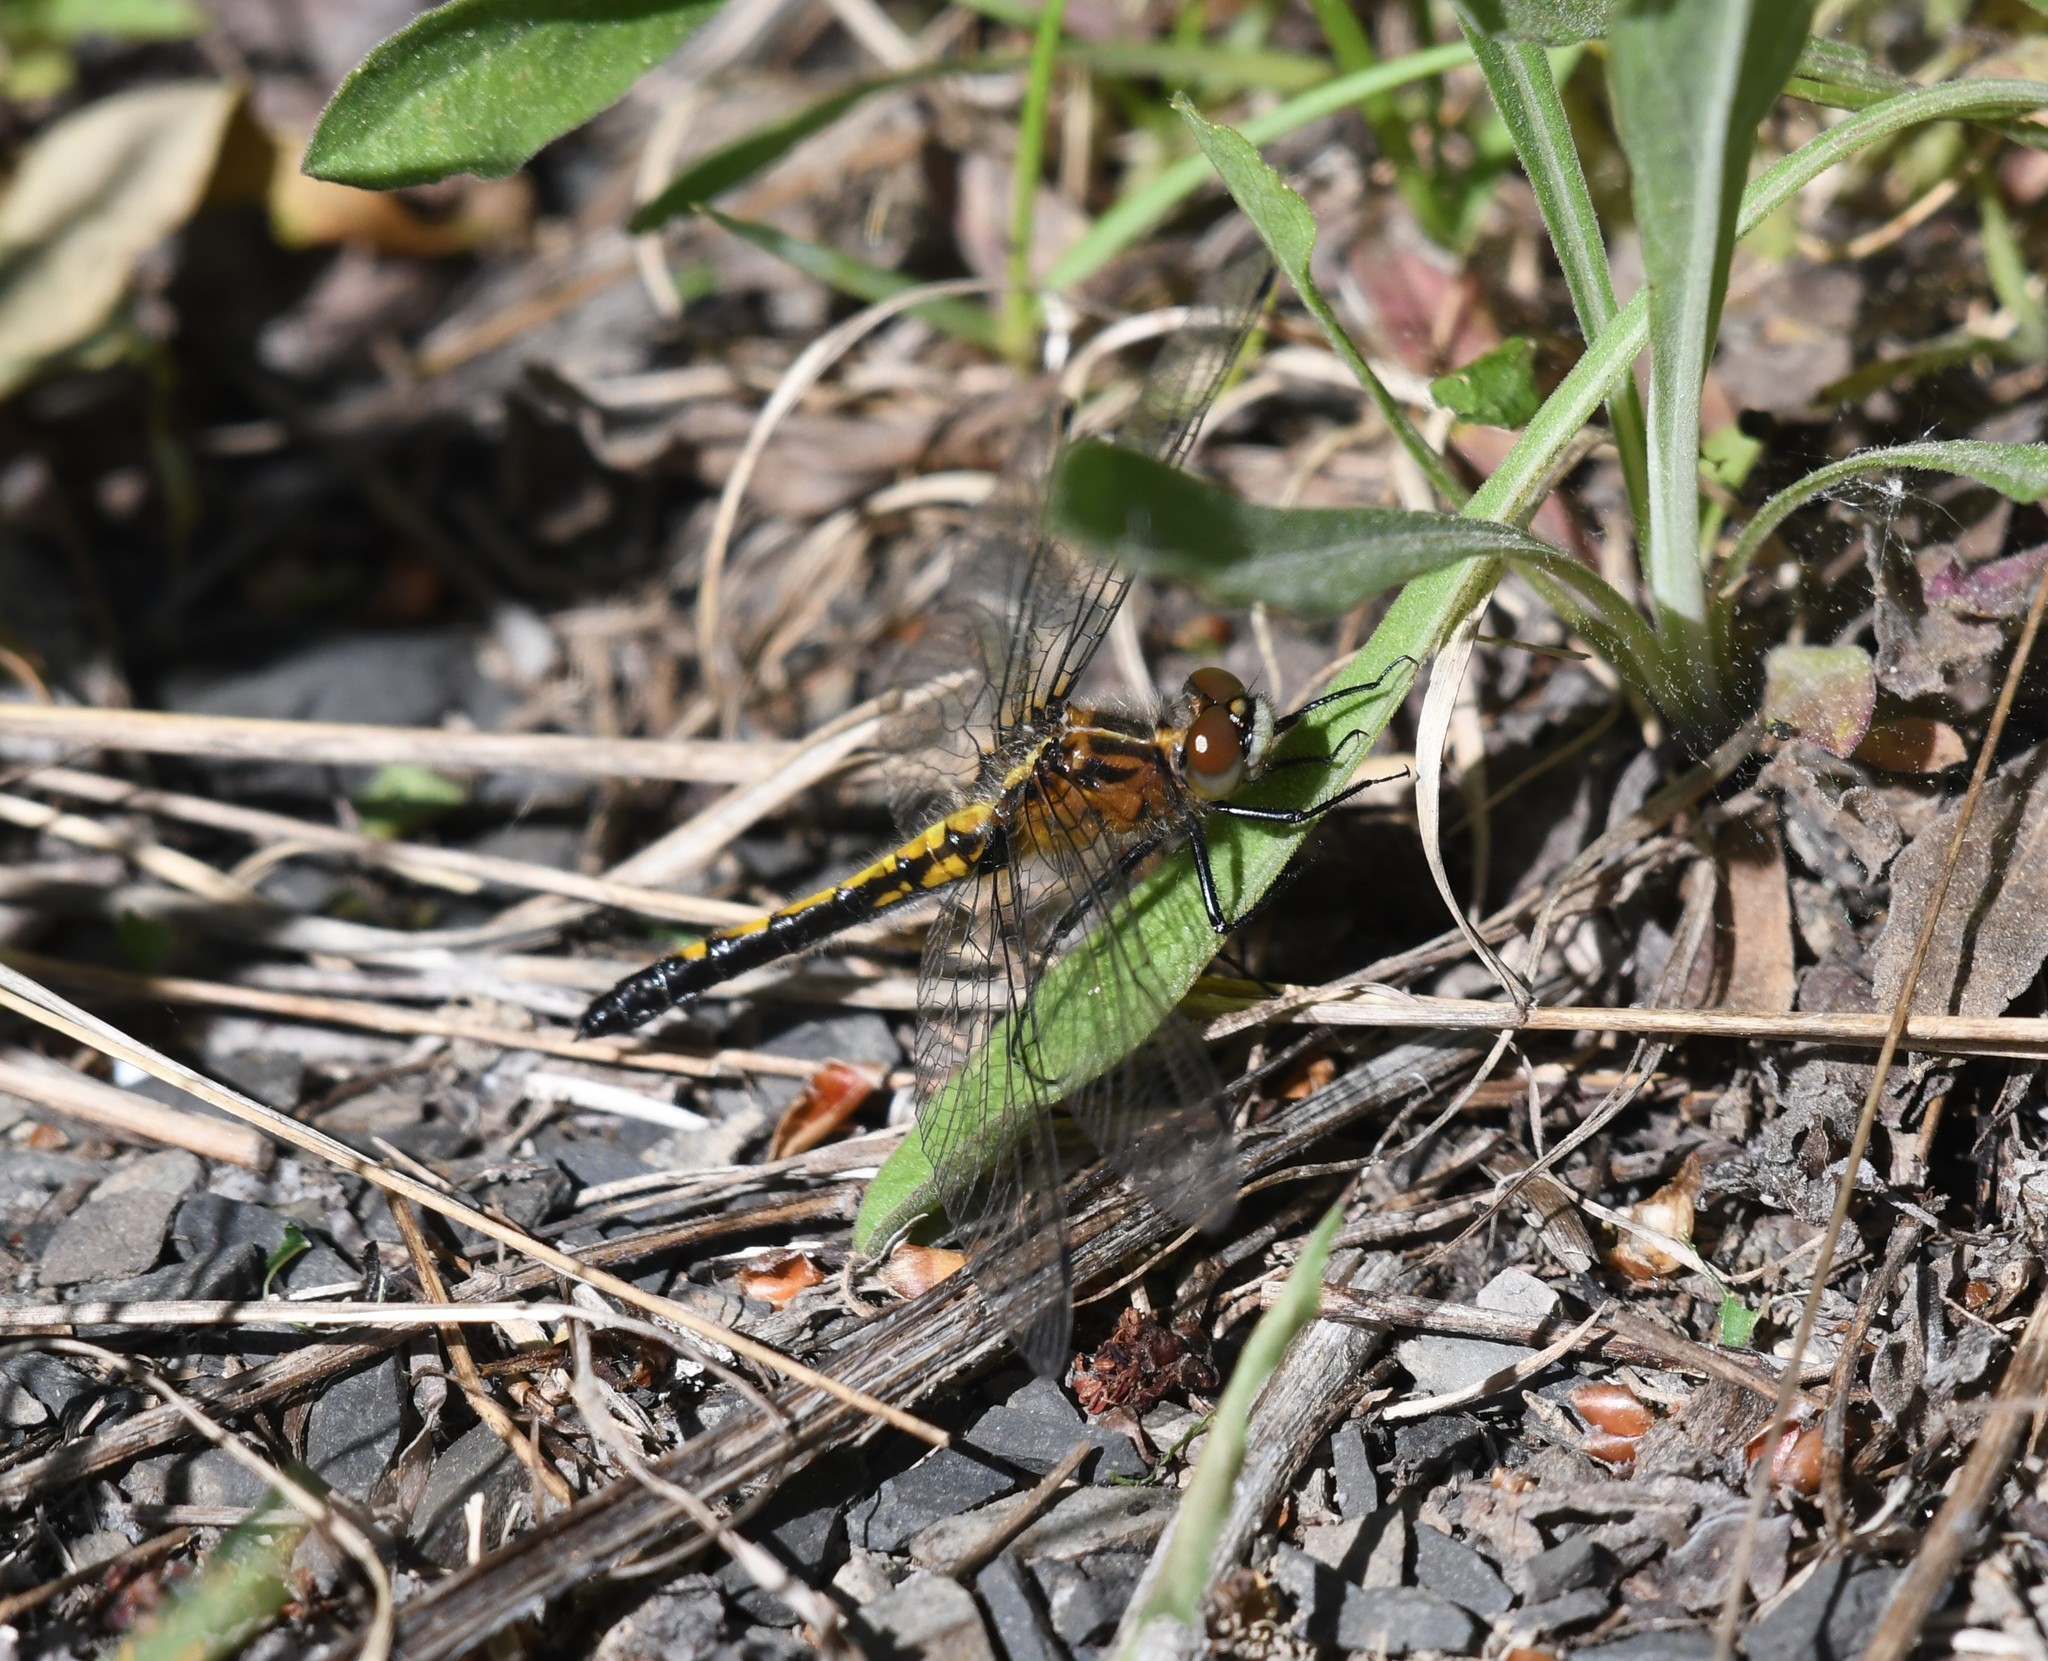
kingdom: Animalia
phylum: Arthropoda
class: Insecta
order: Odonata
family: Libellulidae
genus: Leucorrhinia
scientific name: Leucorrhinia intacta
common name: Dot-tailed whiteface
